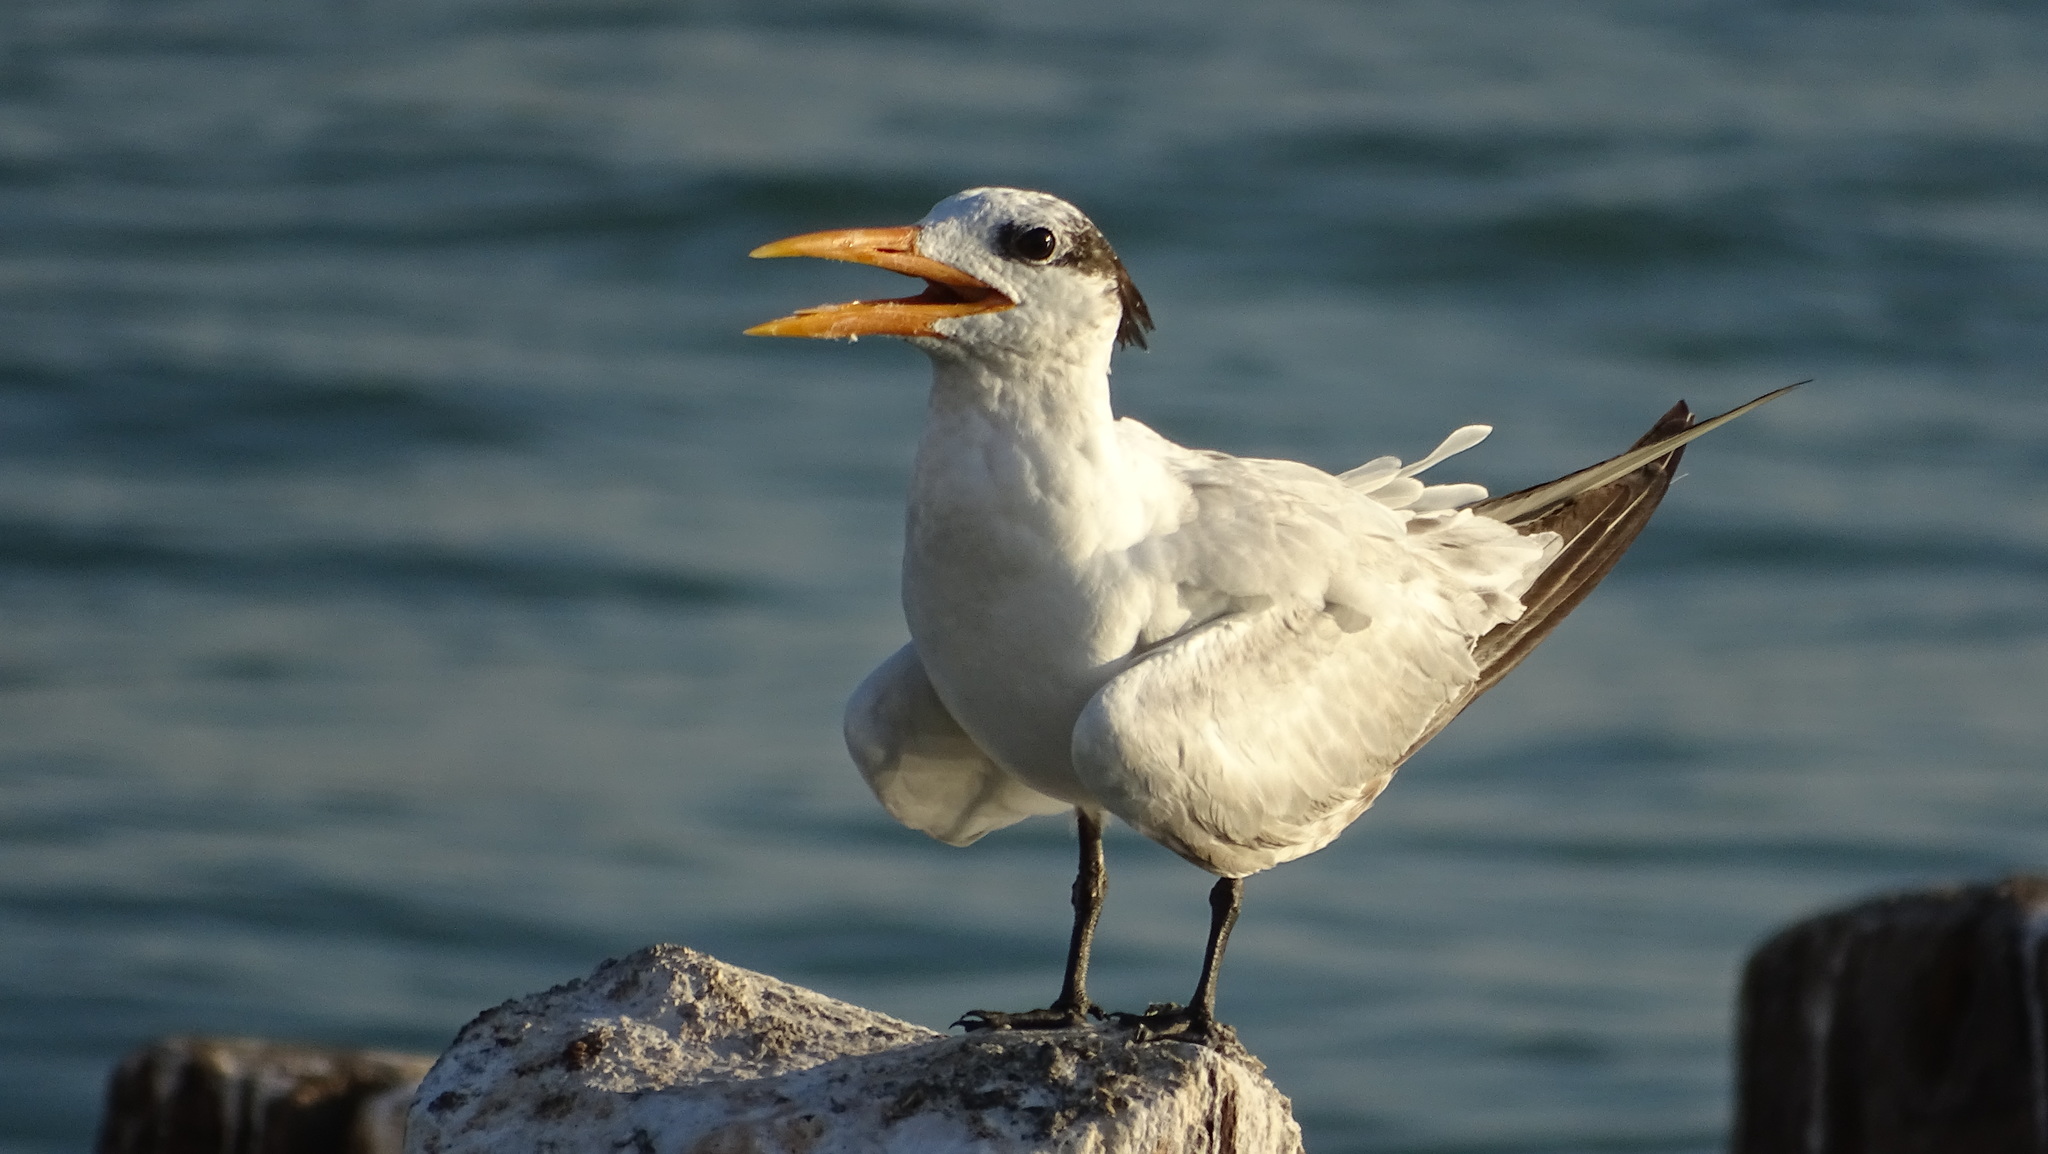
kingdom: Animalia
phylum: Chordata
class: Aves
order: Charadriiformes
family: Laridae
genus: Thalasseus
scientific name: Thalasseus maximus
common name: Royal tern
